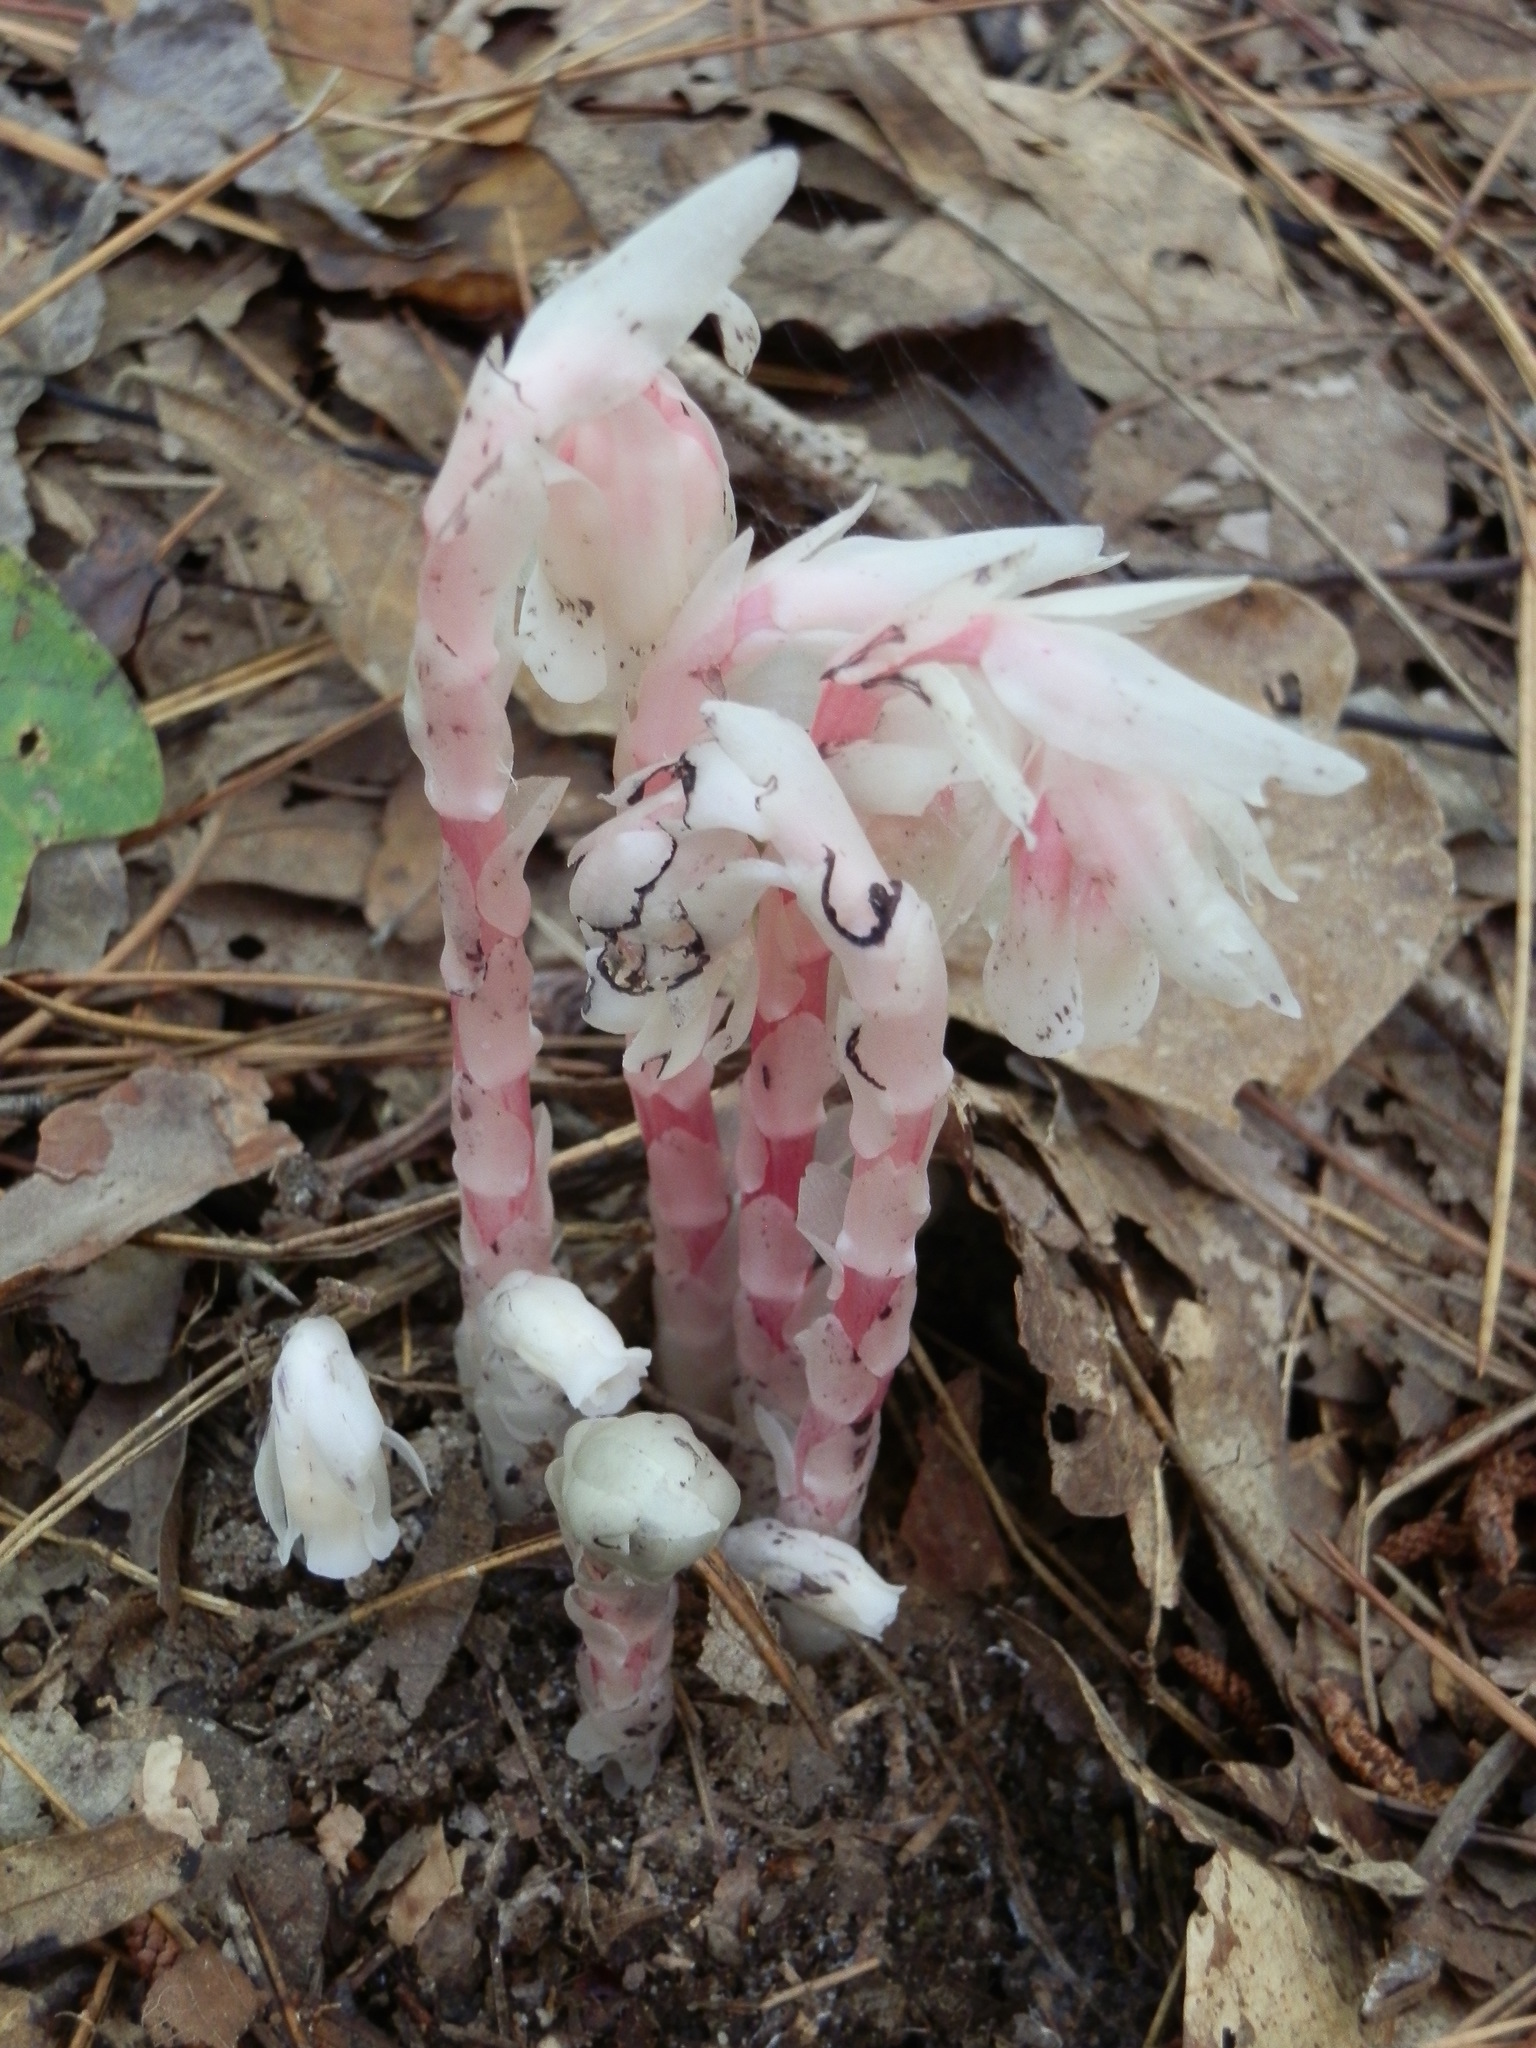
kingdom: Plantae
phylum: Tracheophyta
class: Magnoliopsida
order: Ericales
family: Ericaceae
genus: Monotropa
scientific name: Monotropa uniflora
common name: Convulsion root
